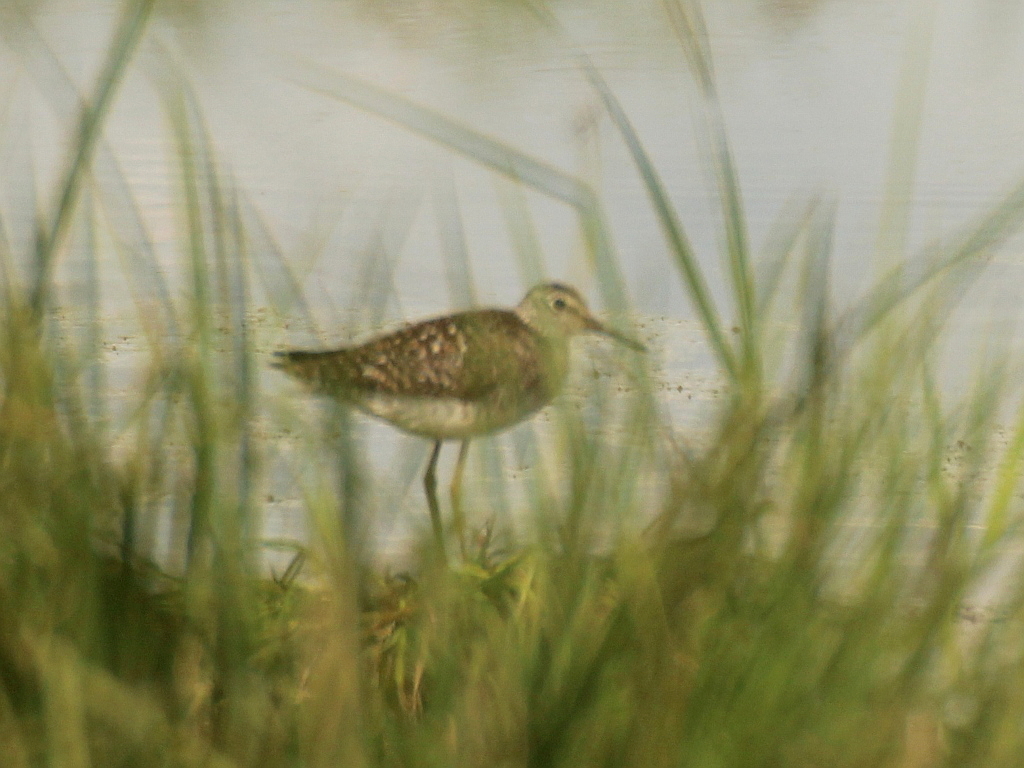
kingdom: Animalia
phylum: Chordata
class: Aves
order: Charadriiformes
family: Scolopacidae
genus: Tringa
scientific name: Tringa glareola
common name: Wood sandpiper
